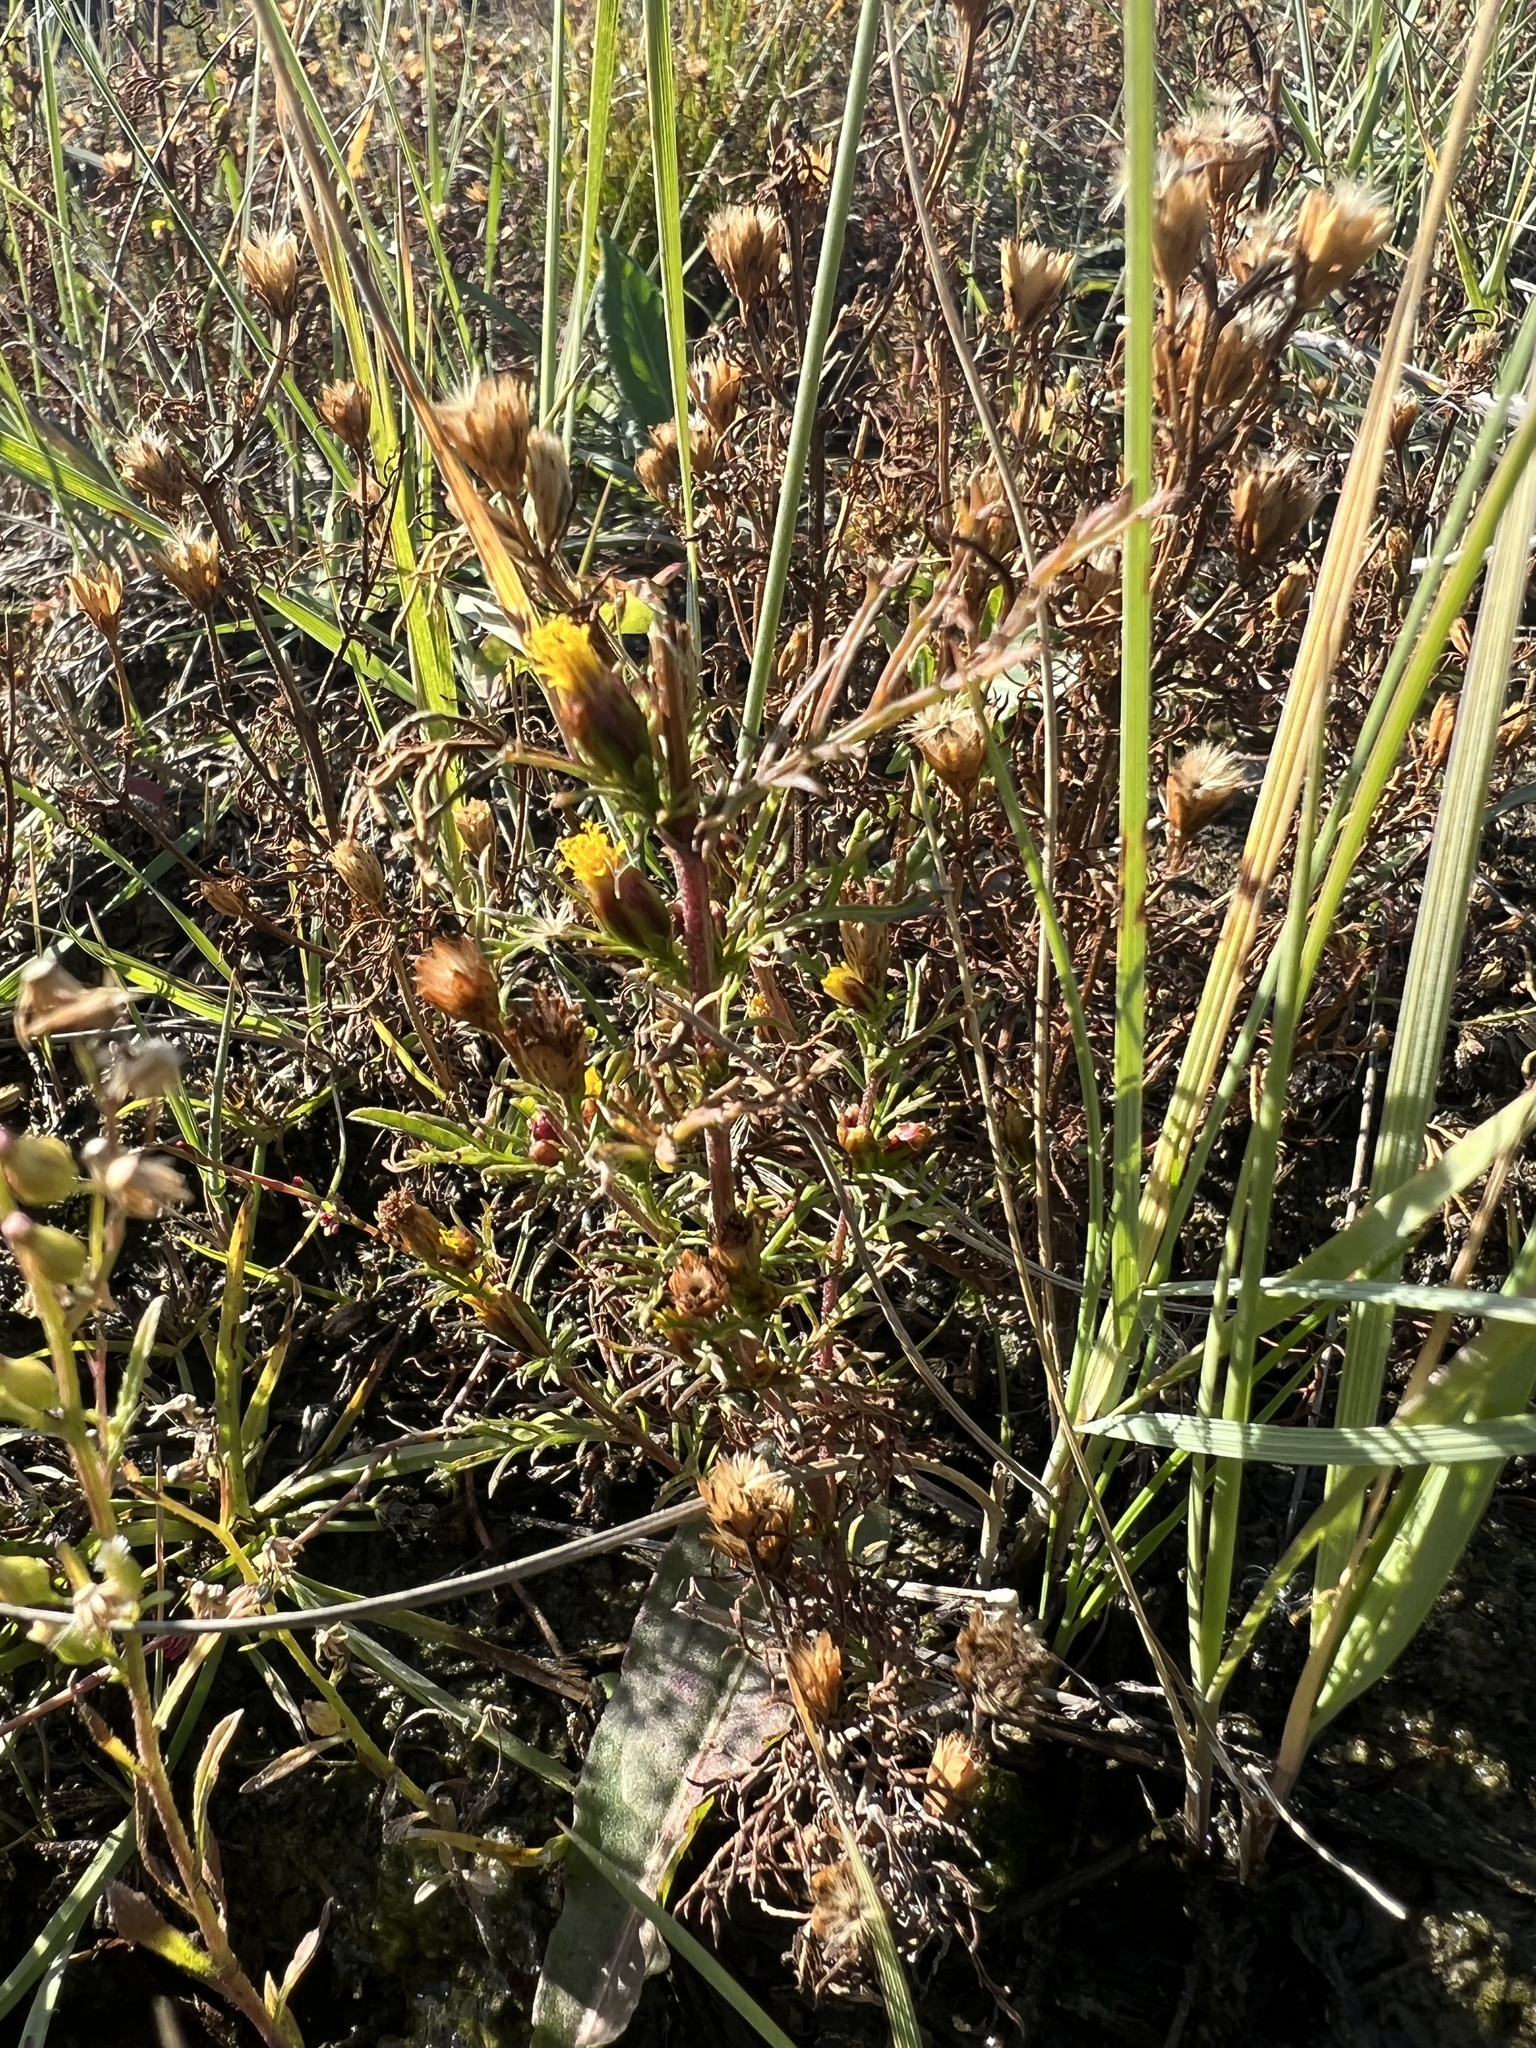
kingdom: Plantae
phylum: Tracheophyta
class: Magnoliopsida
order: Asterales
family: Asteraceae
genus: Dyssodia
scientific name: Dyssodia papposa
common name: Dogweed
